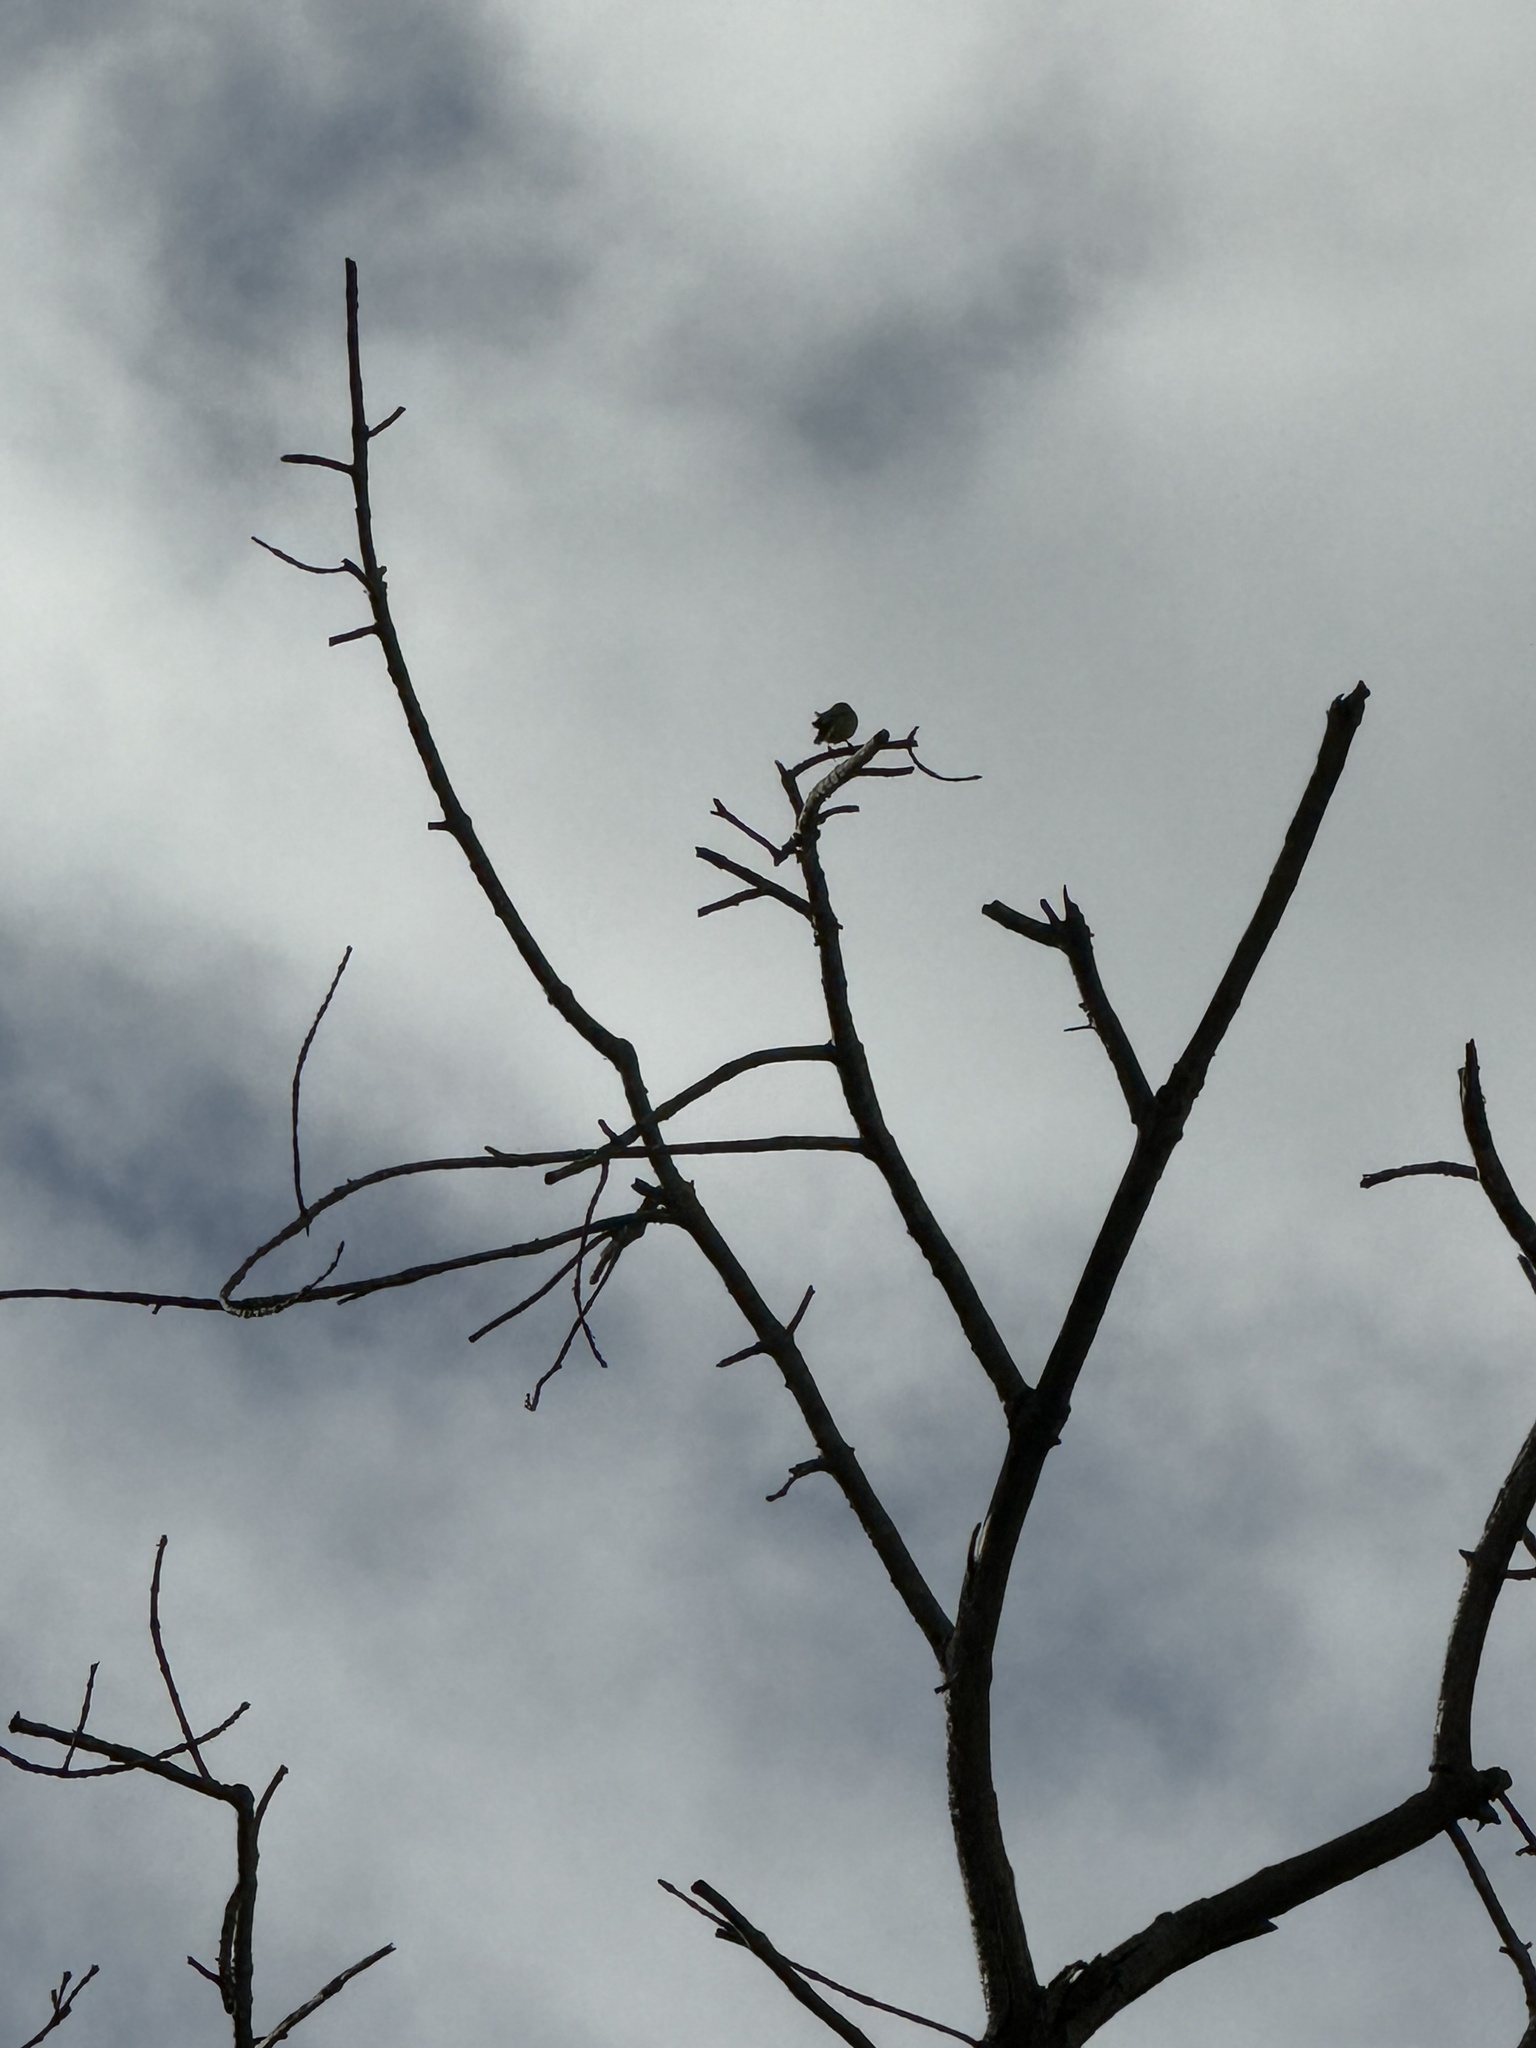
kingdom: Animalia
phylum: Chordata
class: Aves
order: Passeriformes
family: Fringillidae
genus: Spinus
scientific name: Spinus psaltria
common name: Lesser goldfinch
